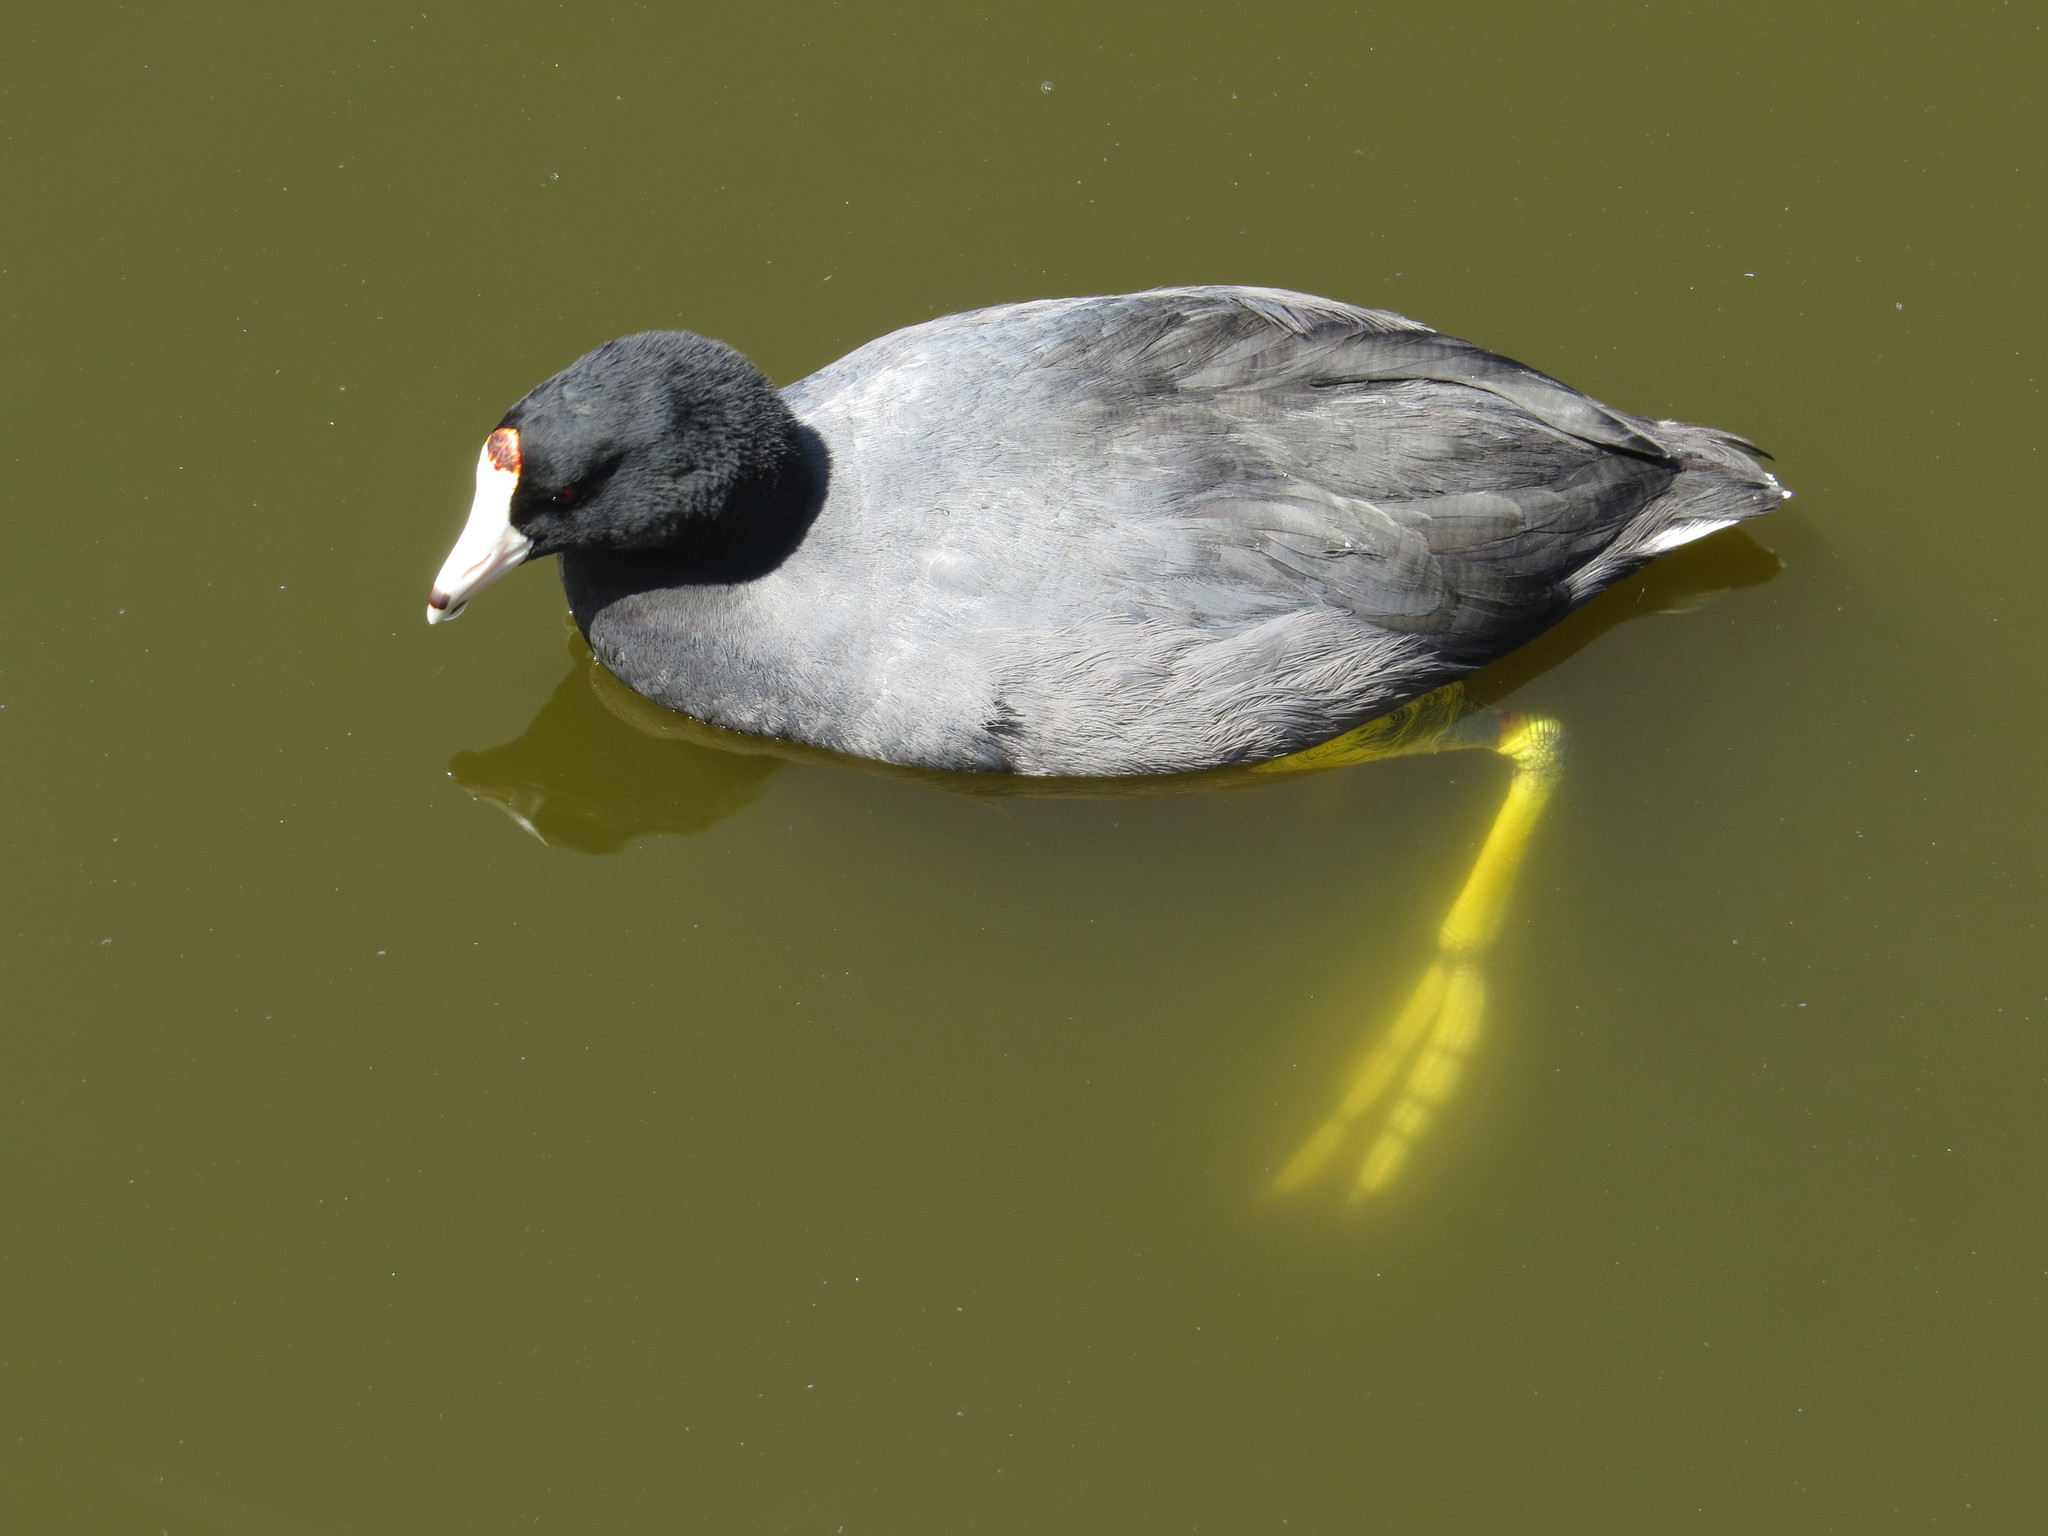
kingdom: Animalia
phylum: Chordata
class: Aves
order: Gruiformes
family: Rallidae
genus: Fulica
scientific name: Fulica americana
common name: American coot
